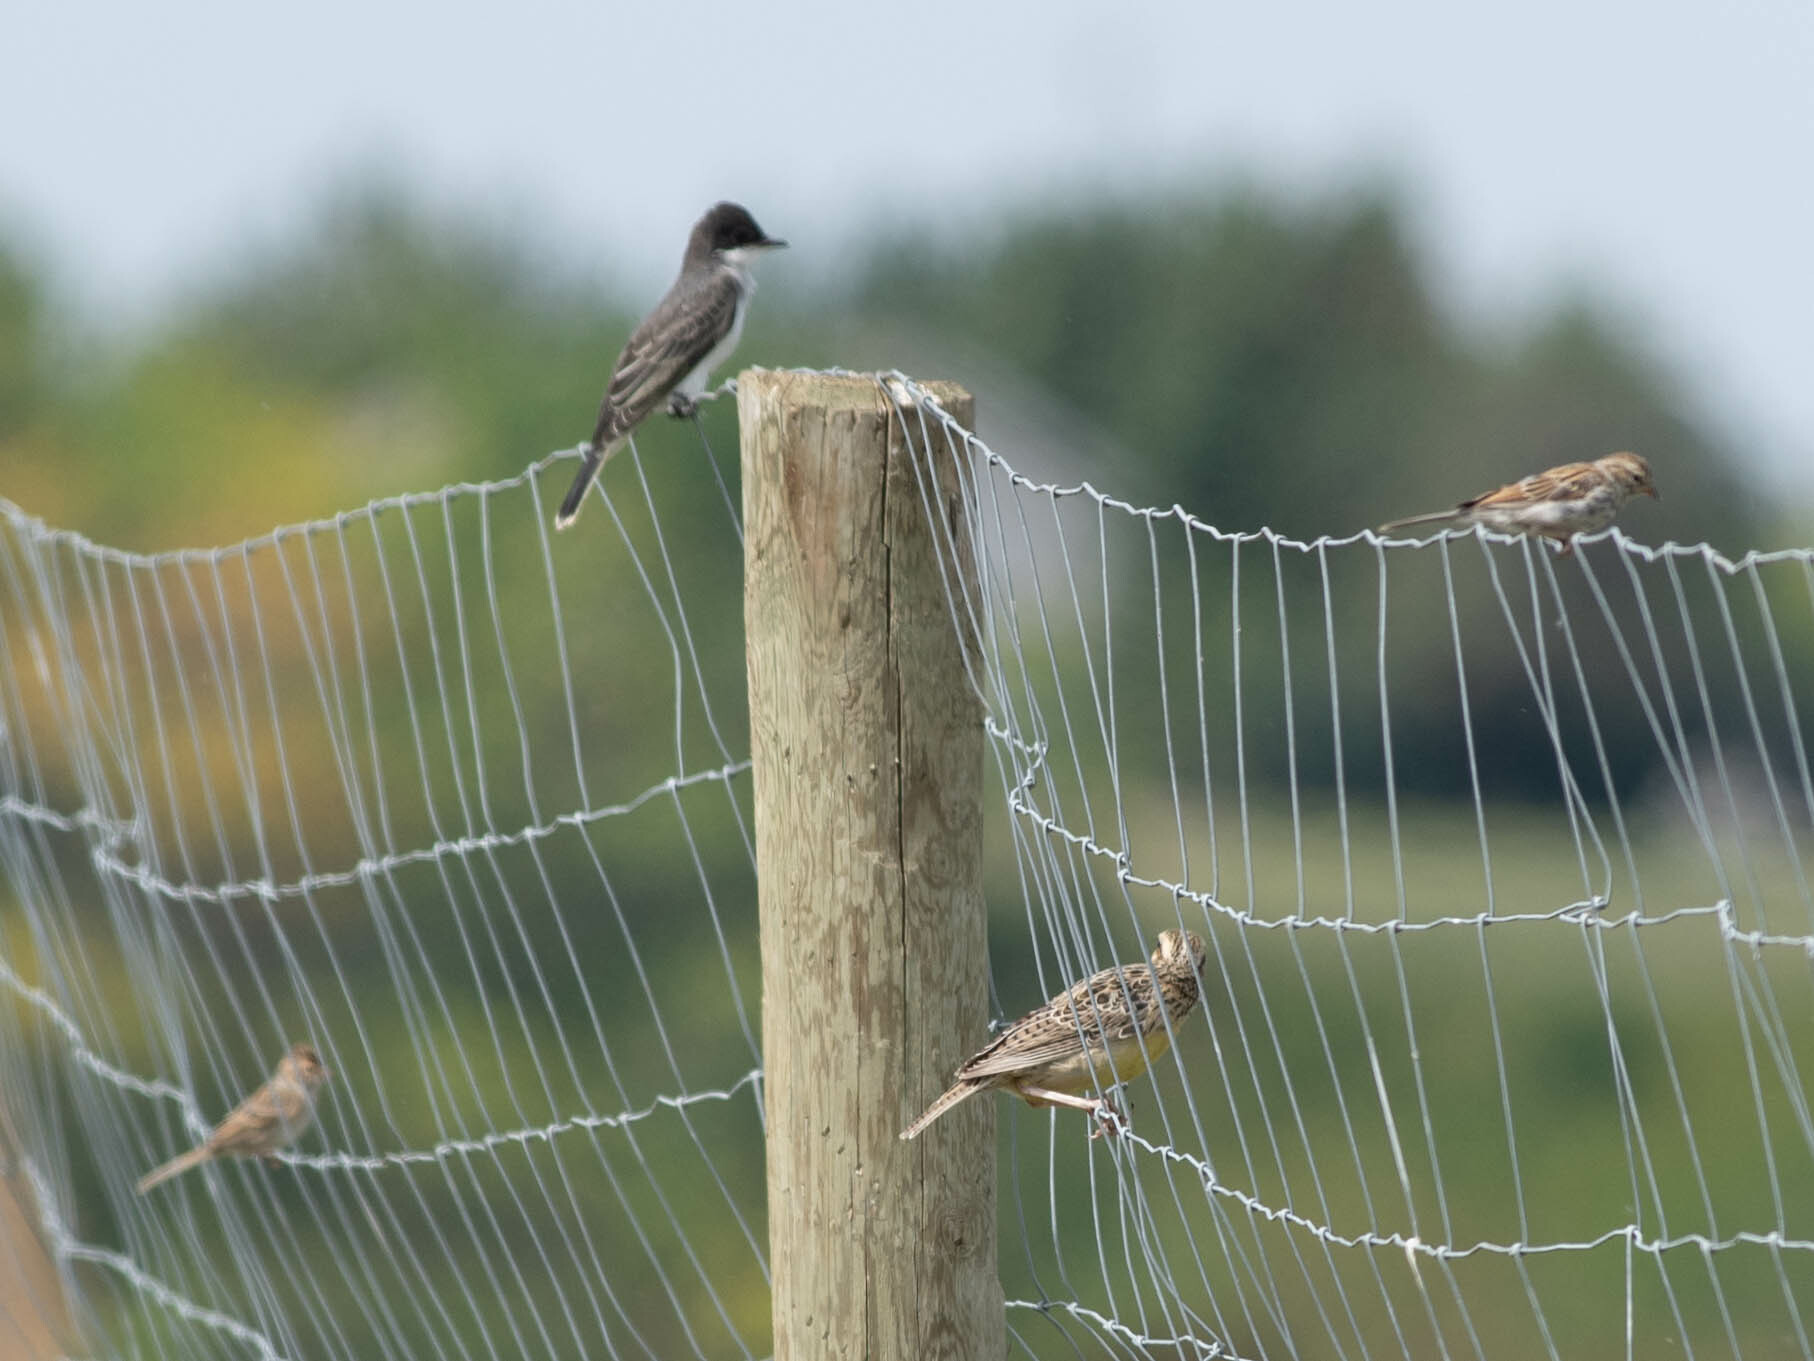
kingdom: Animalia
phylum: Chordata
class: Aves
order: Passeriformes
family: Tyrannidae
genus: Tyrannus
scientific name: Tyrannus tyrannus
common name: Eastern kingbird
